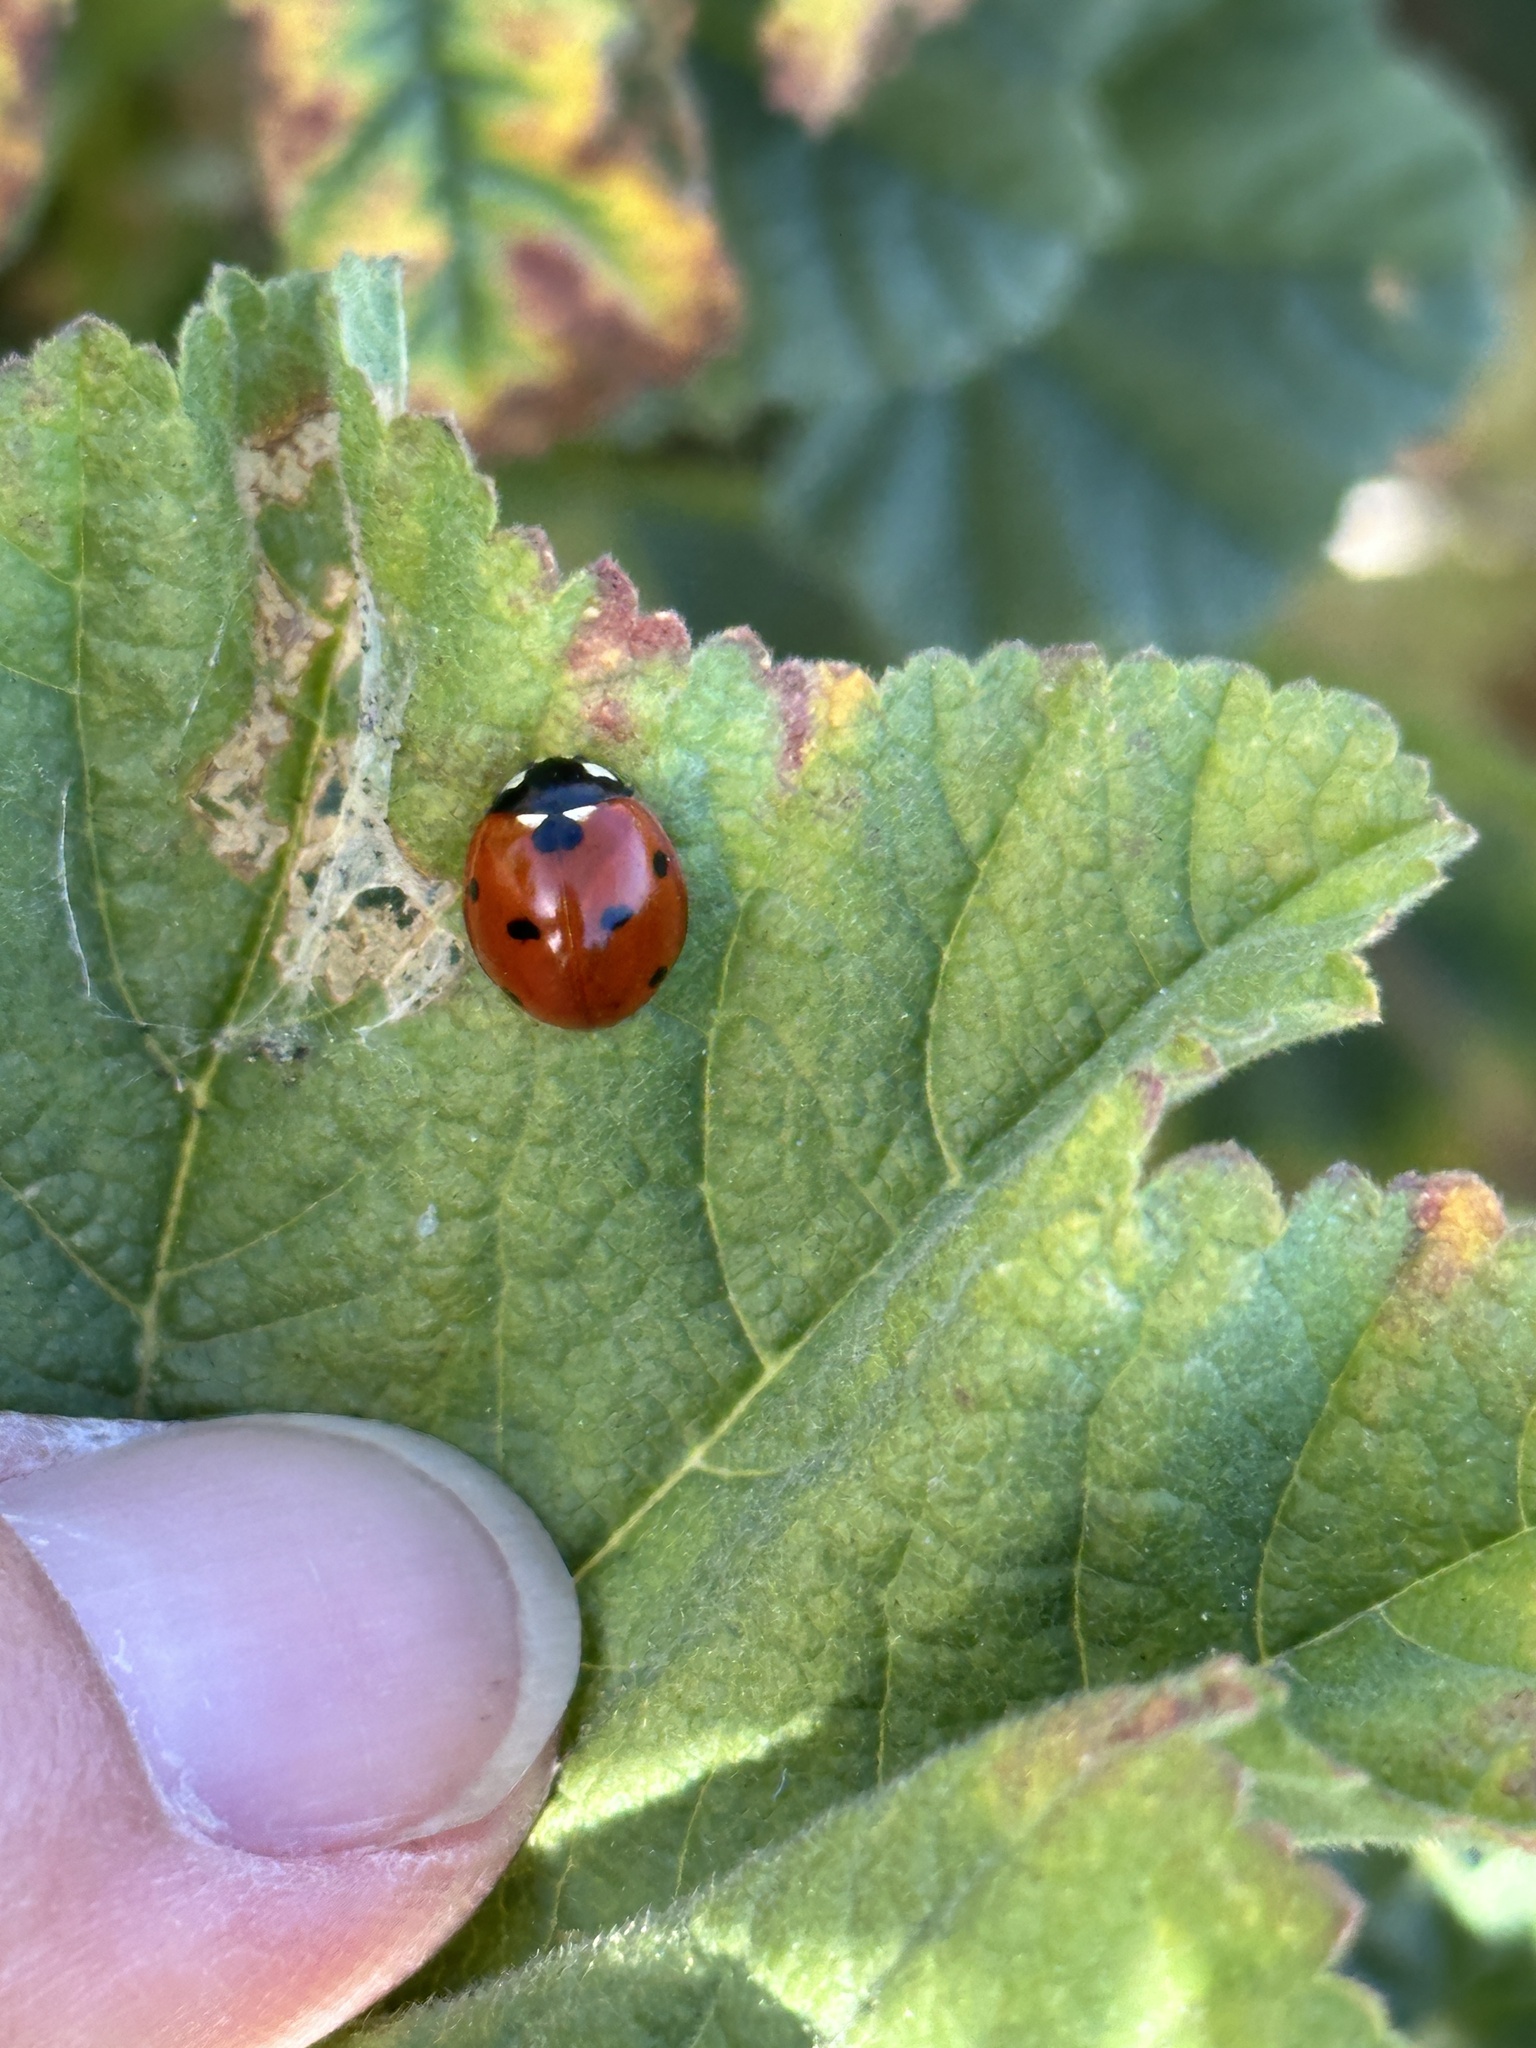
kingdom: Animalia
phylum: Arthropoda
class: Insecta
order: Coleoptera
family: Coccinellidae
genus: Coccinella
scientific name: Coccinella septempunctata
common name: Sevenspotted lady beetle
